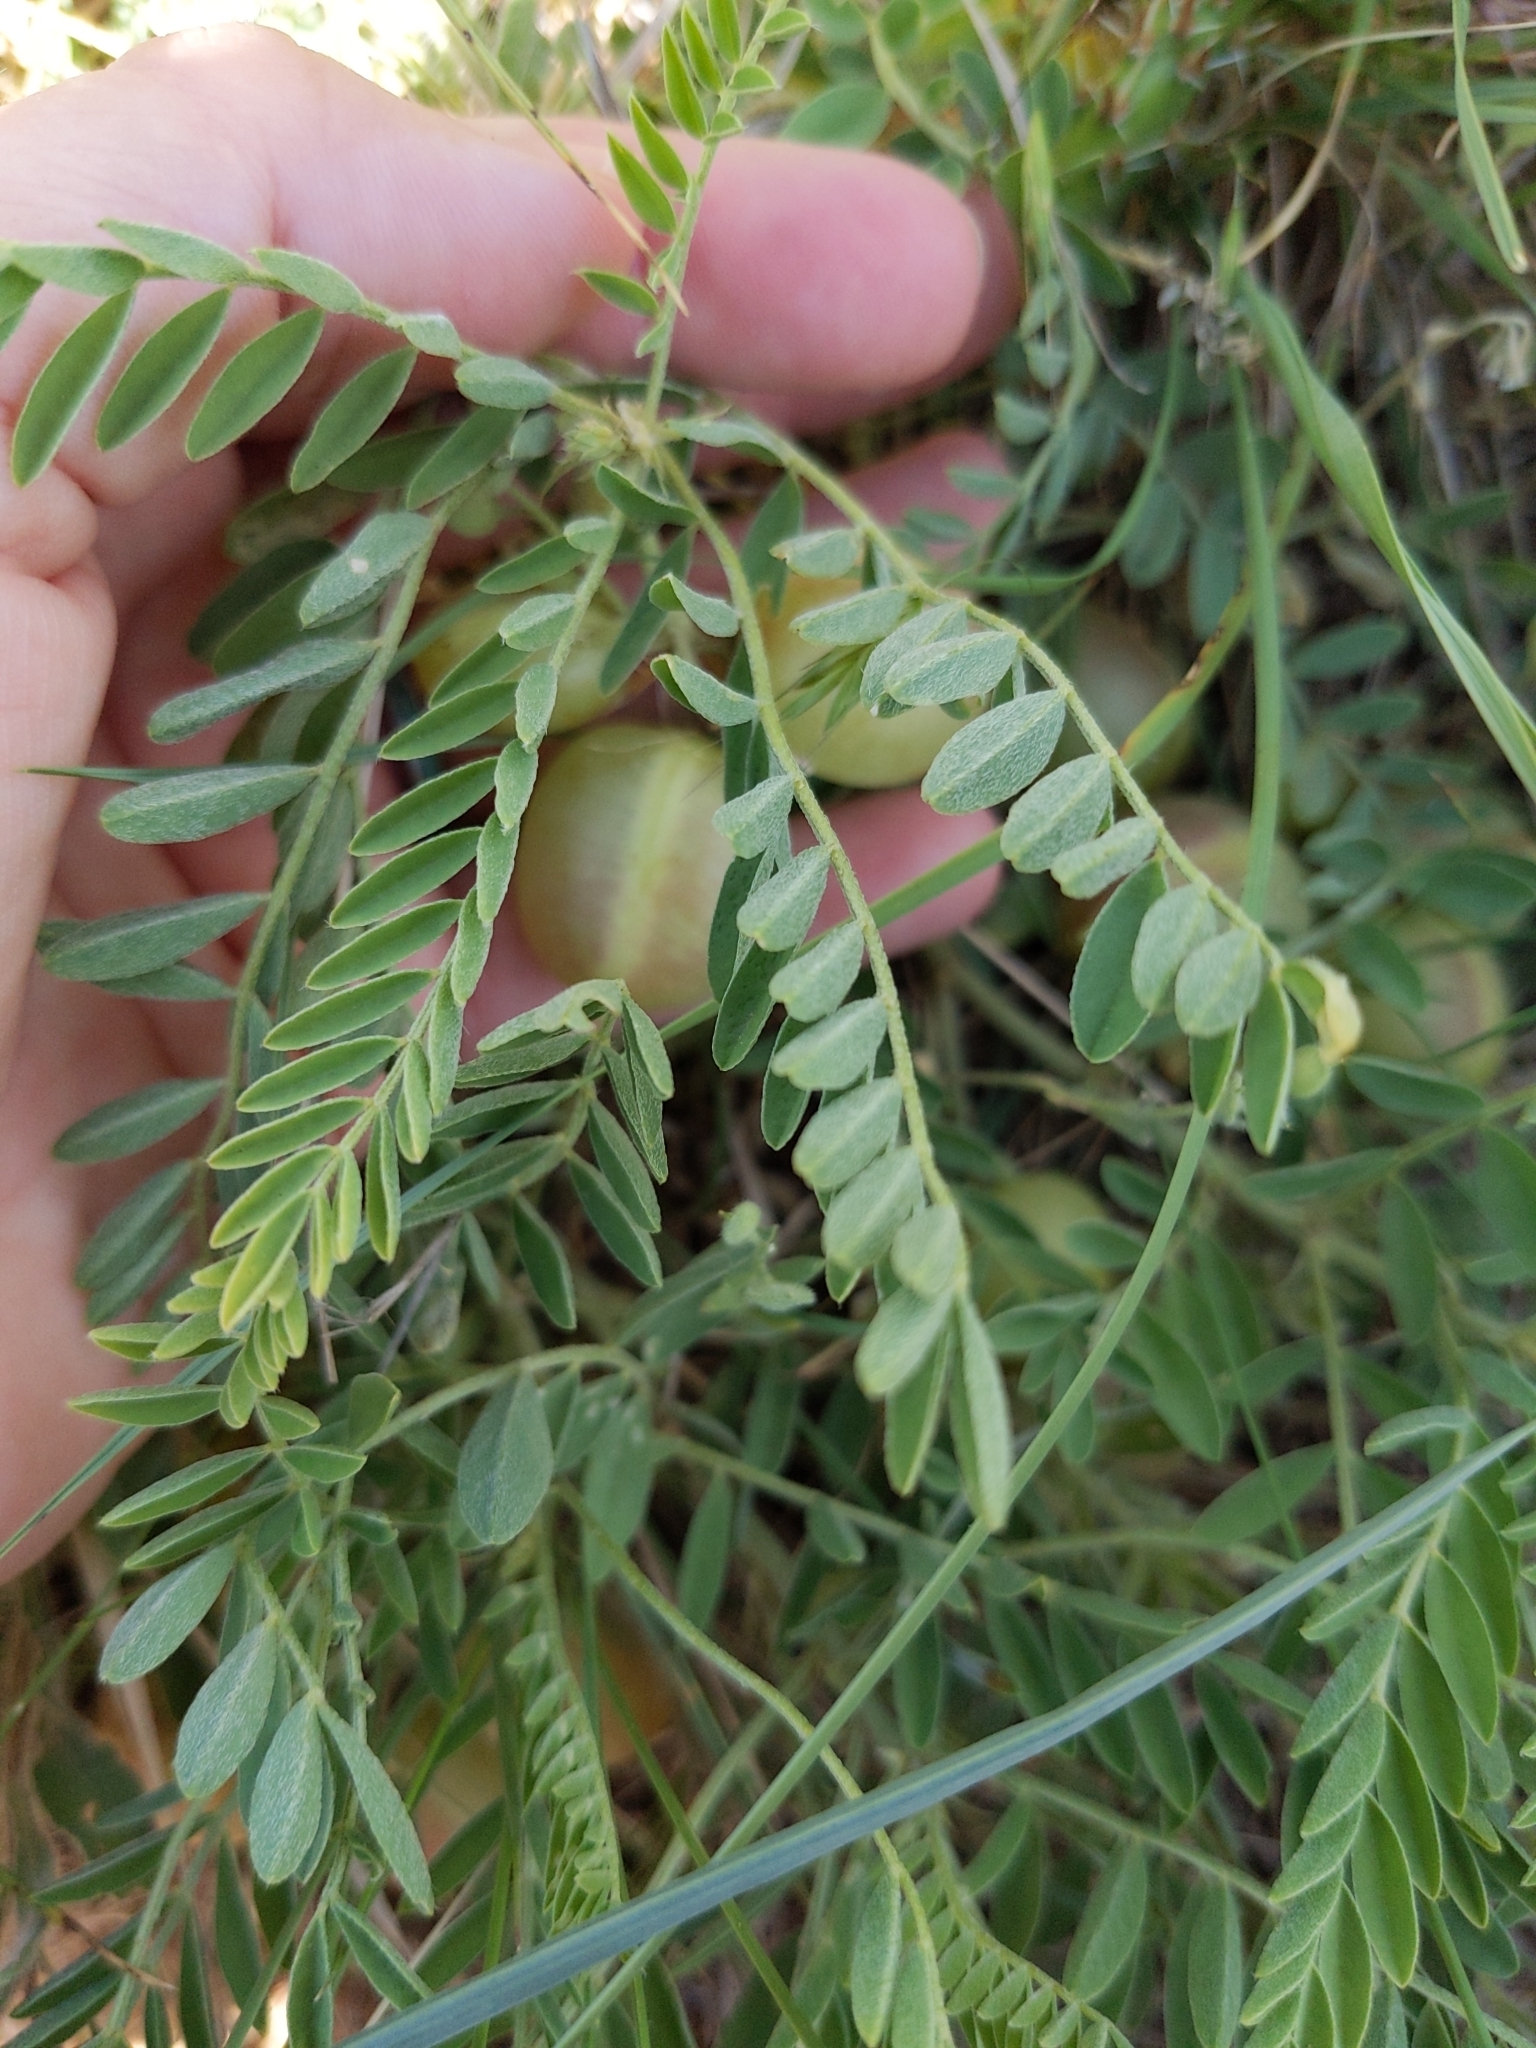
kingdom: Plantae
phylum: Tracheophyta
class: Magnoliopsida
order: Fabales
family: Fabaceae
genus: Astragalus
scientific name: Astragalus crassicarpus
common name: Ground-plum milk-vetch
